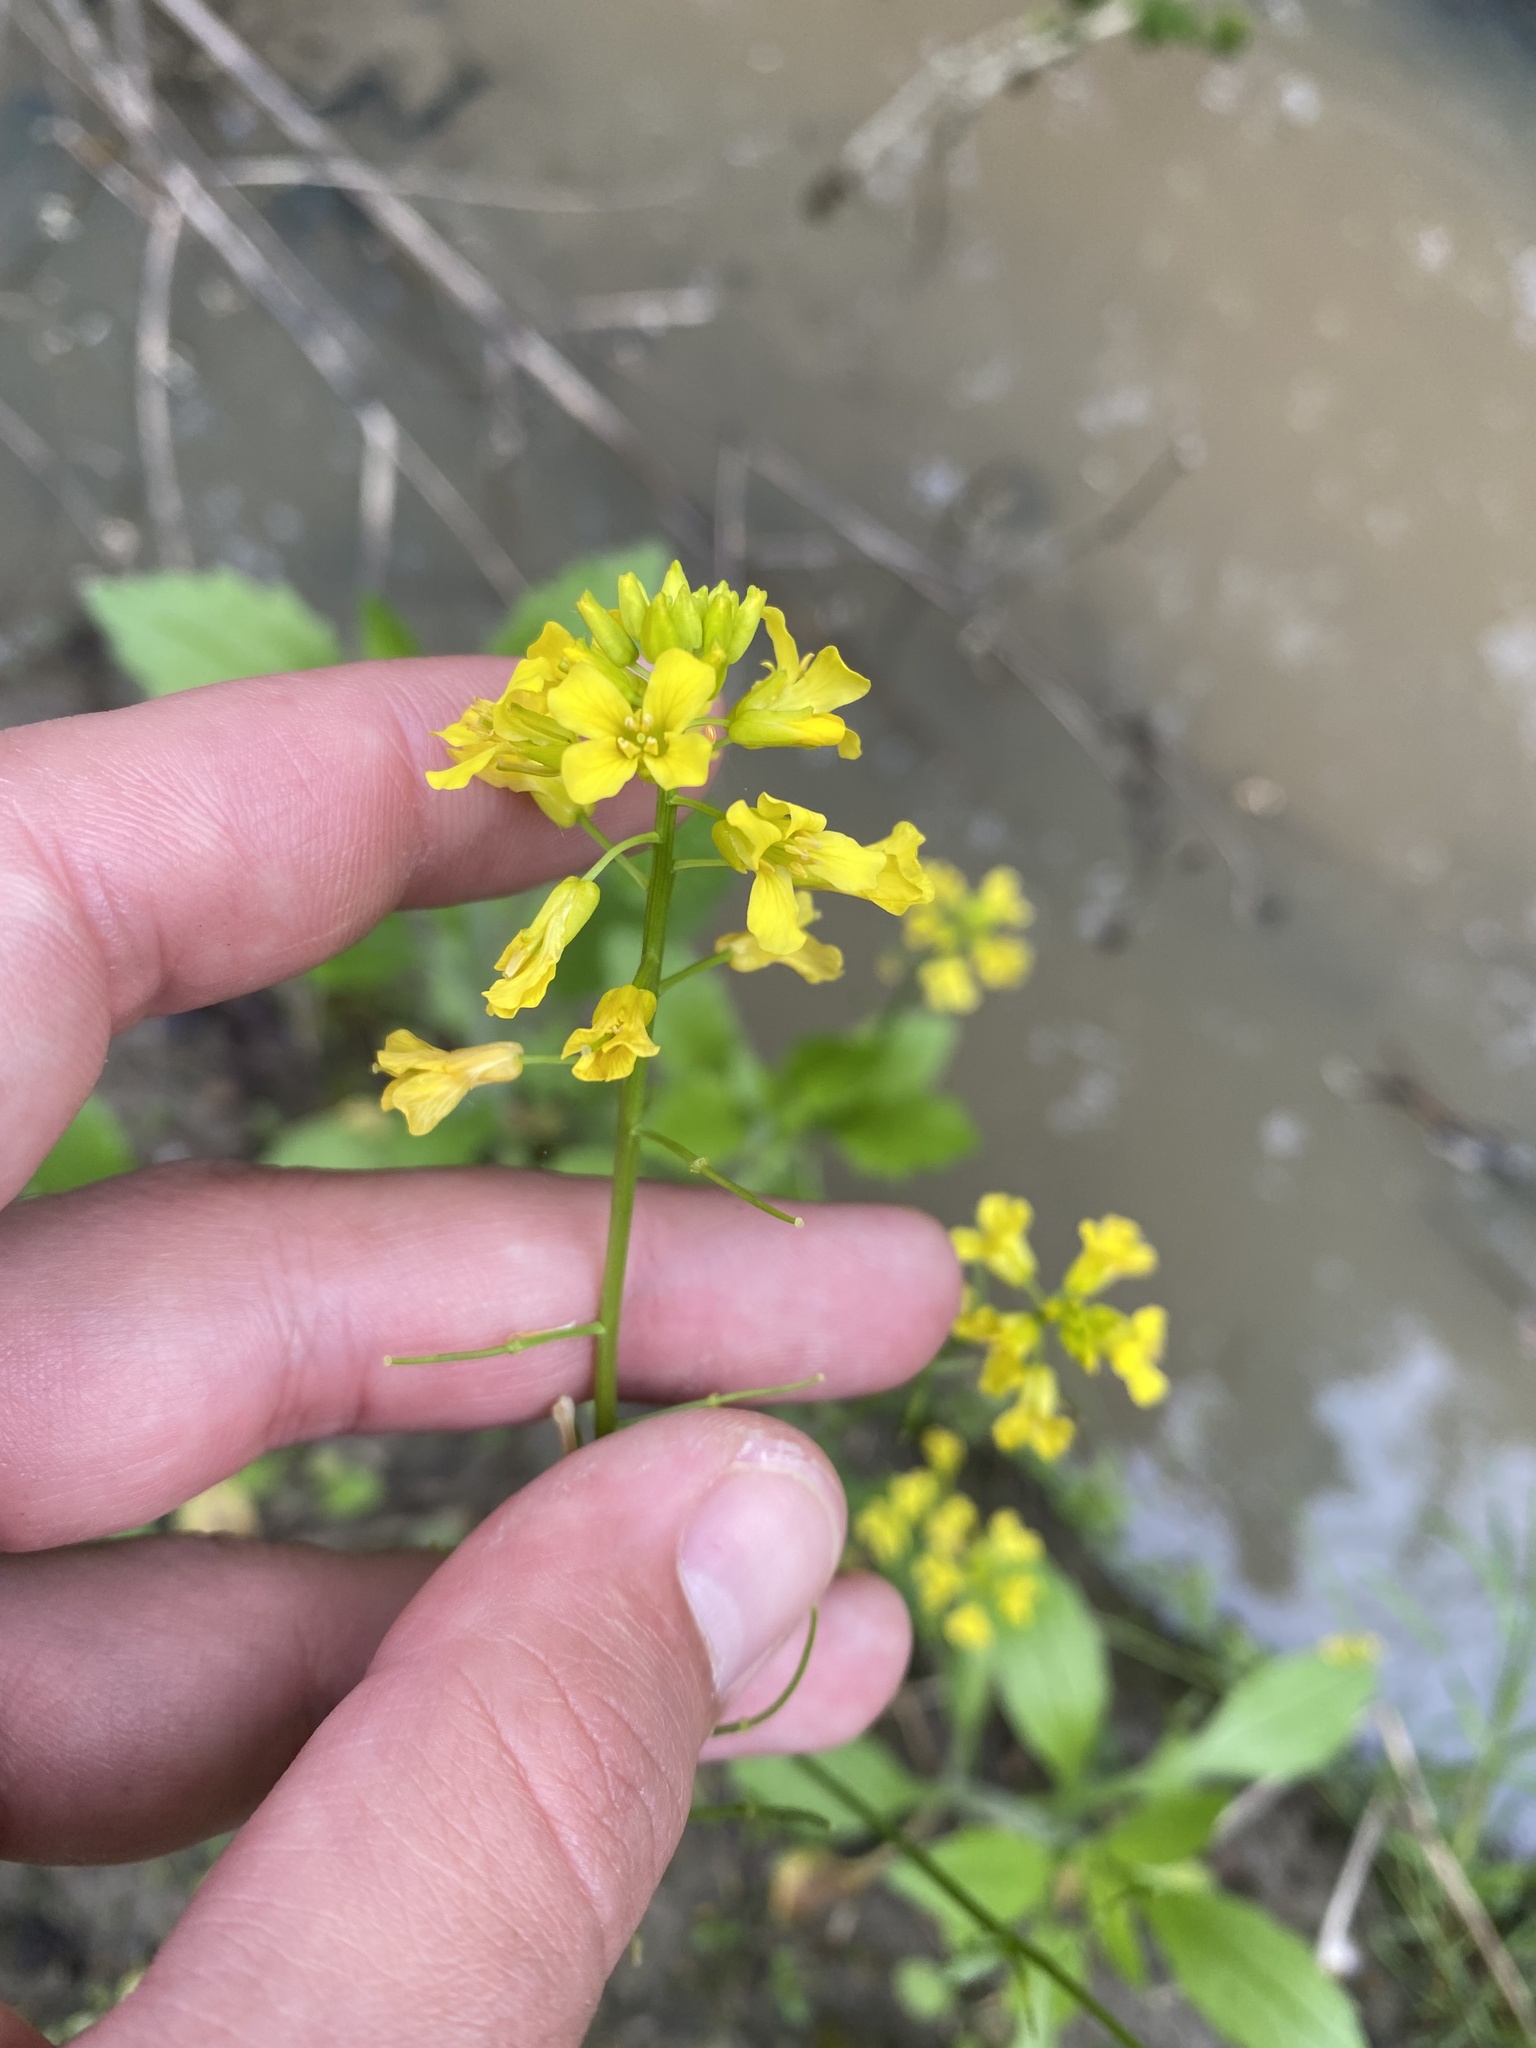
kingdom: Plantae
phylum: Tracheophyta
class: Magnoliopsida
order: Brassicales
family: Brassicaceae
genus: Barbarea
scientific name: Barbarea vulgaris
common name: Cressy-greens
